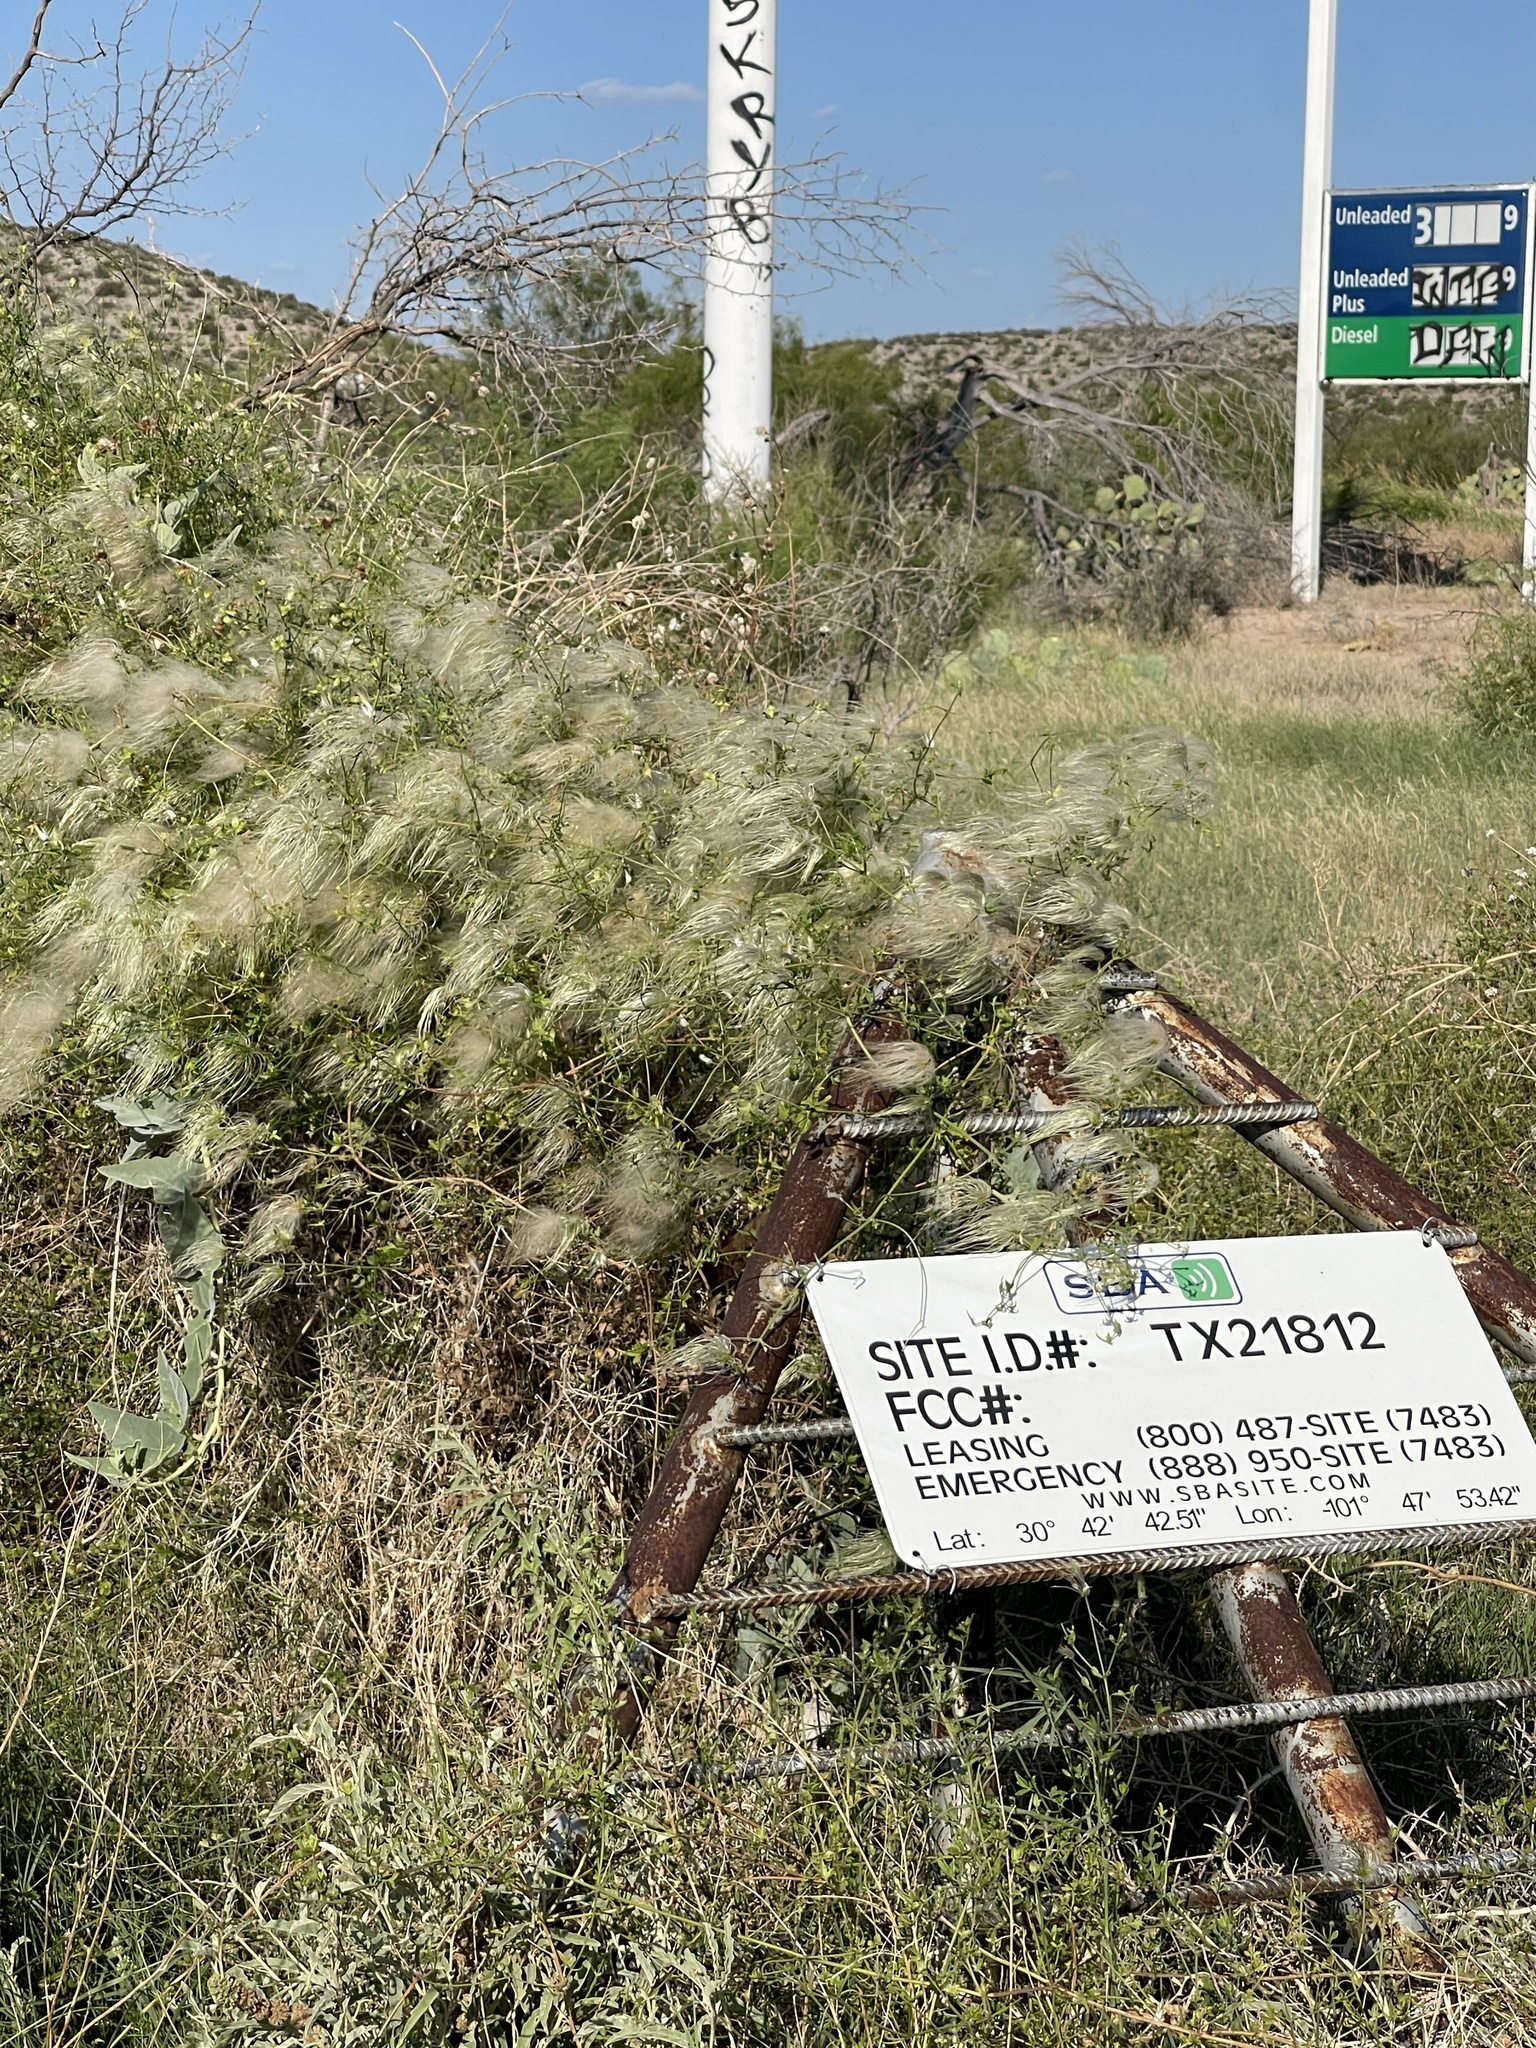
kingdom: Plantae
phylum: Tracheophyta
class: Magnoliopsida
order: Ranunculales
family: Ranunculaceae
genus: Clematis
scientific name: Clematis drummondii
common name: Texas virgin's bower
